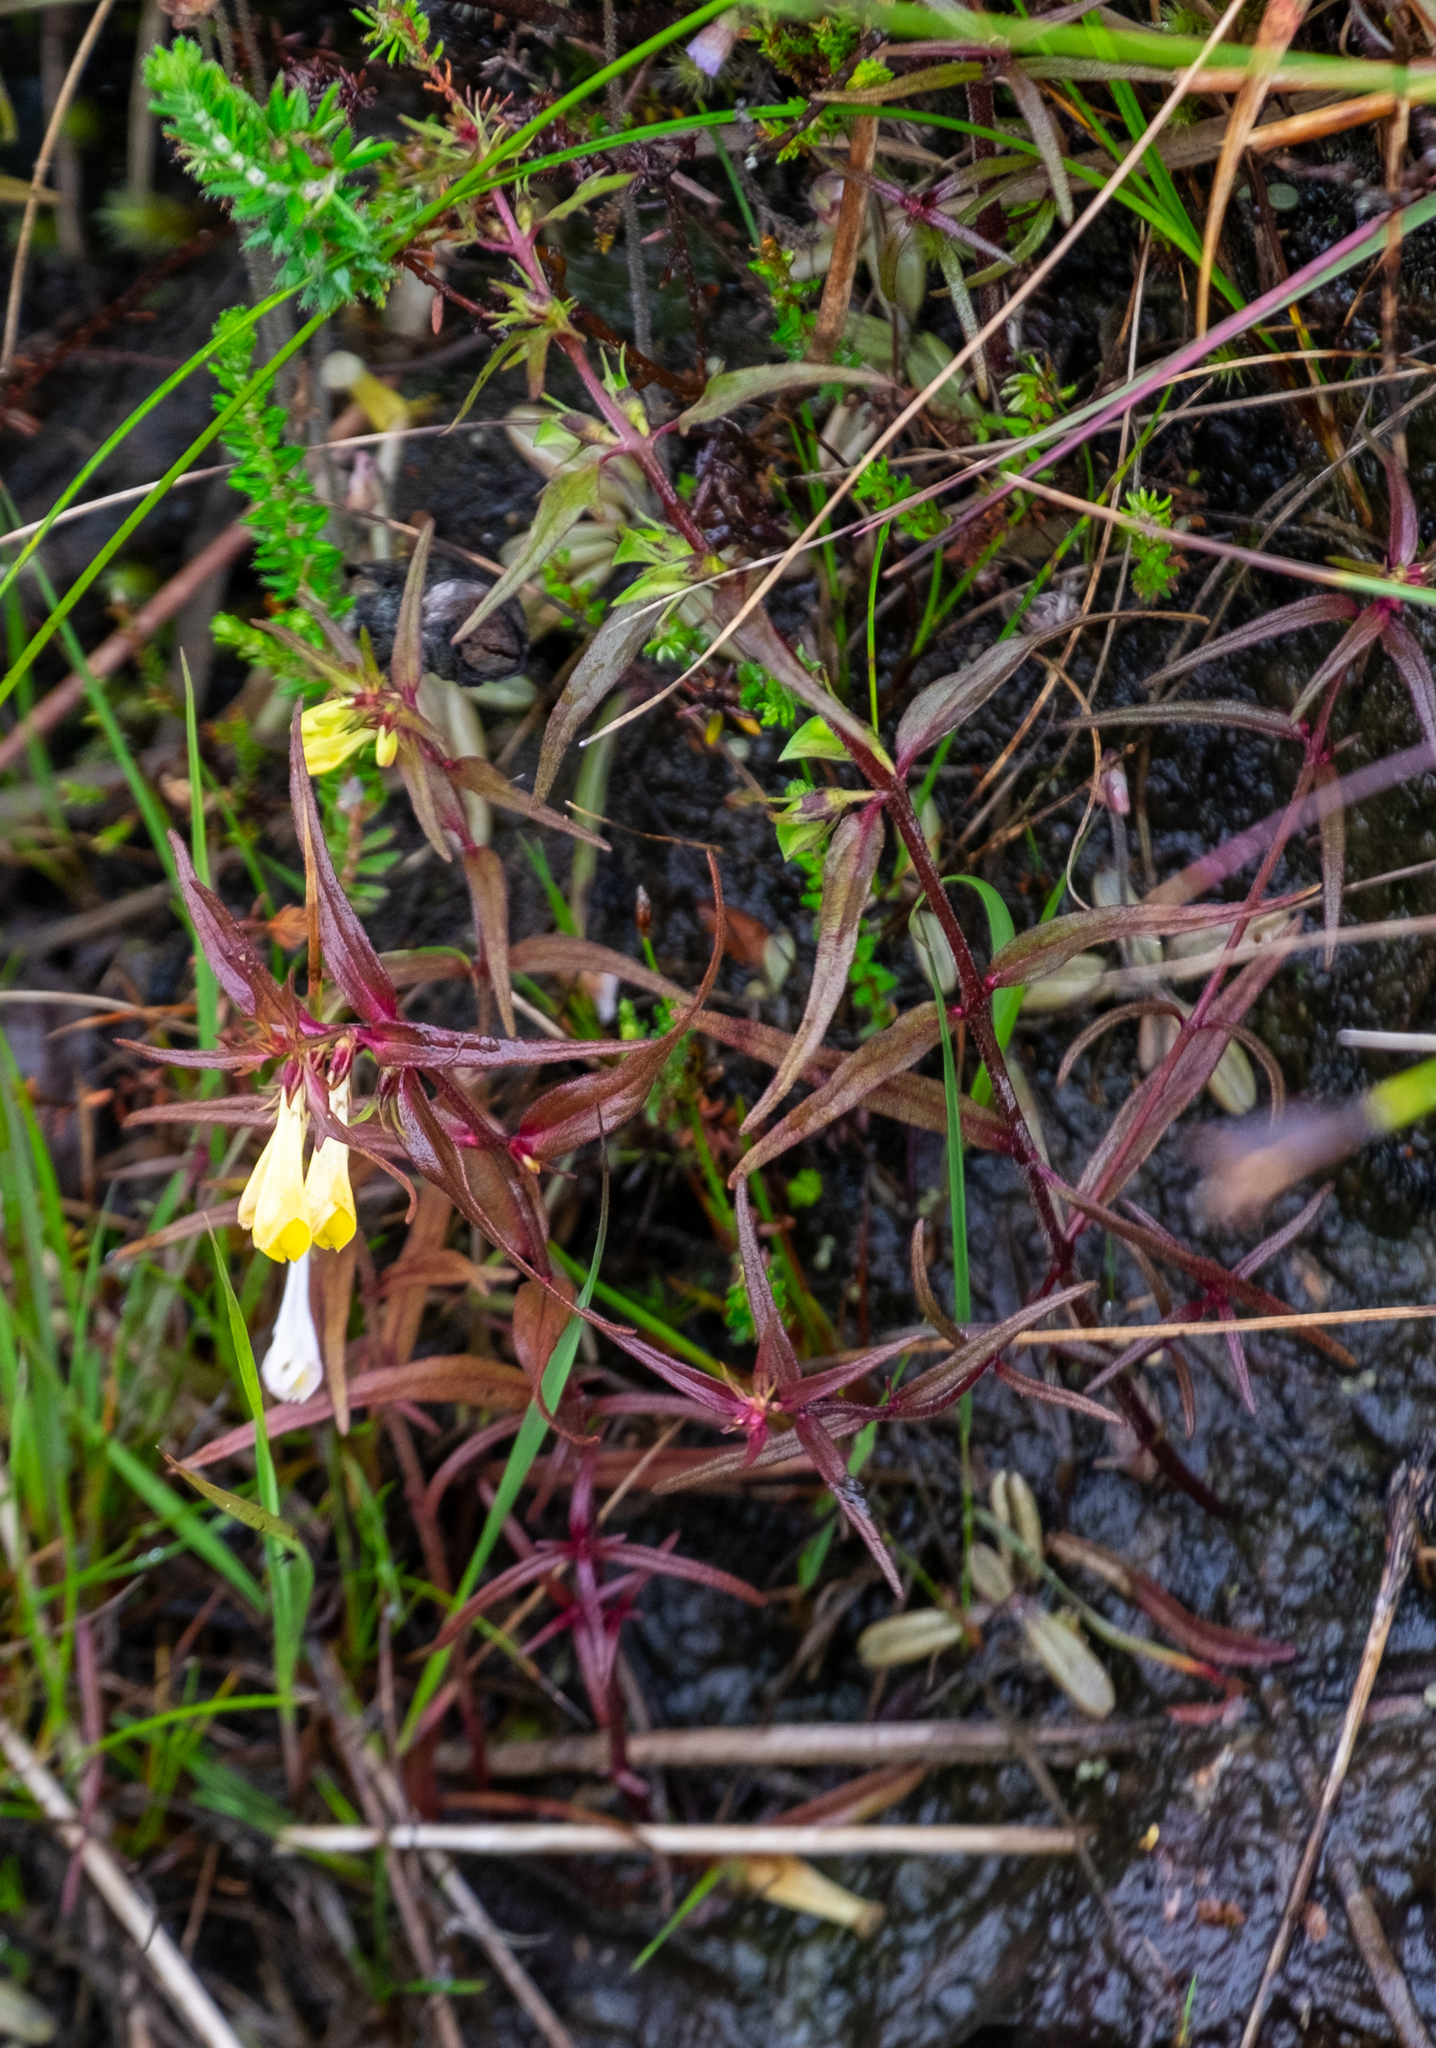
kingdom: Plantae
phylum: Tracheophyta
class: Magnoliopsida
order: Lamiales
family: Orobanchaceae
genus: Melampyrum
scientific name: Melampyrum pratense
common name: Common cow-wheat
